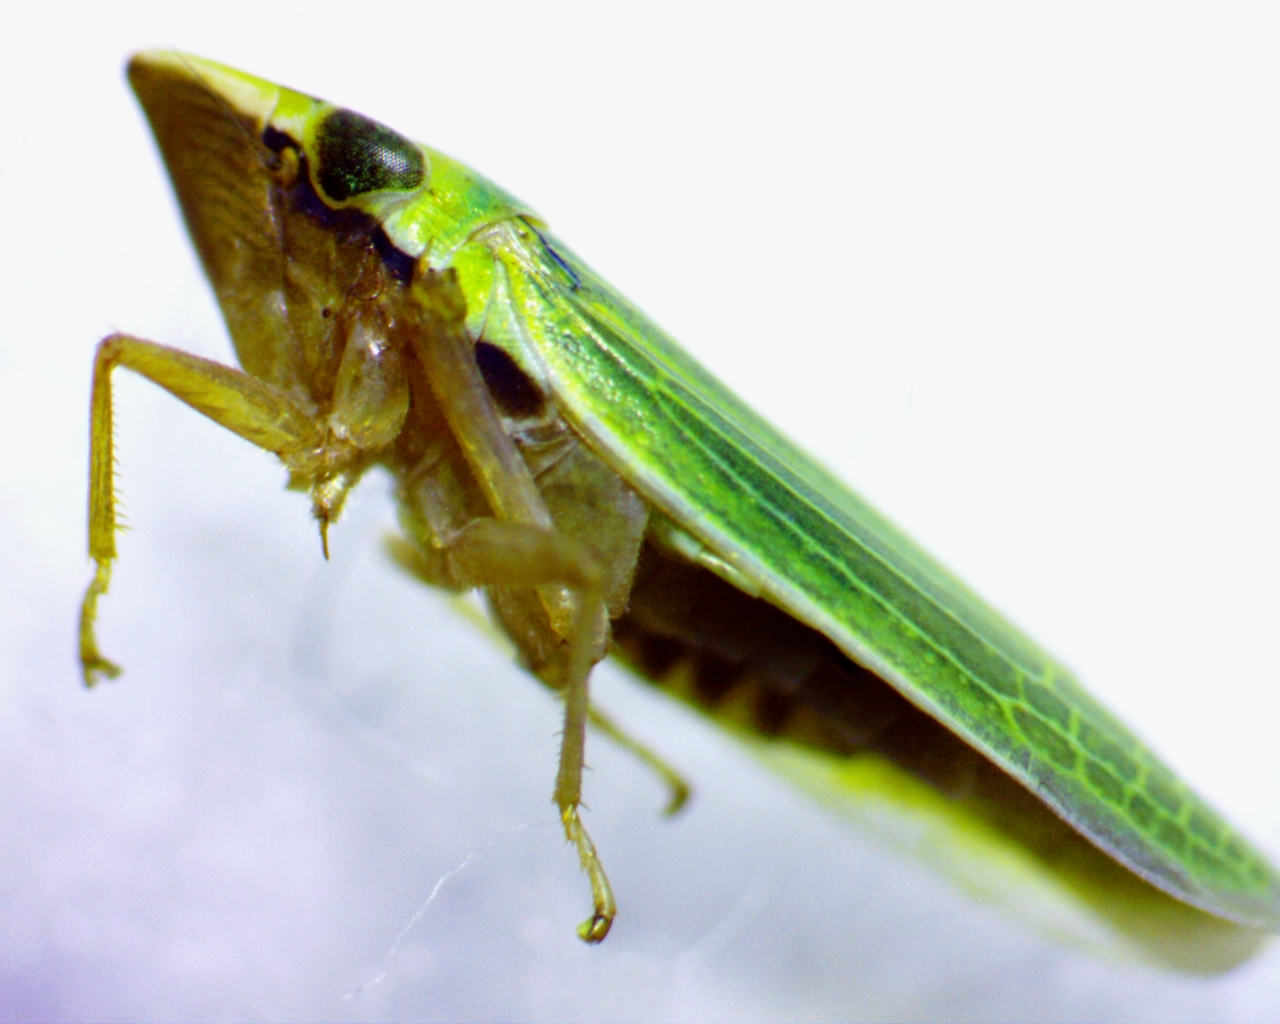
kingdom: Animalia
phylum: Arthropoda
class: Insecta
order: Hemiptera
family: Cicadellidae
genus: Draeculacephala
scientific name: Draeculacephala balli
